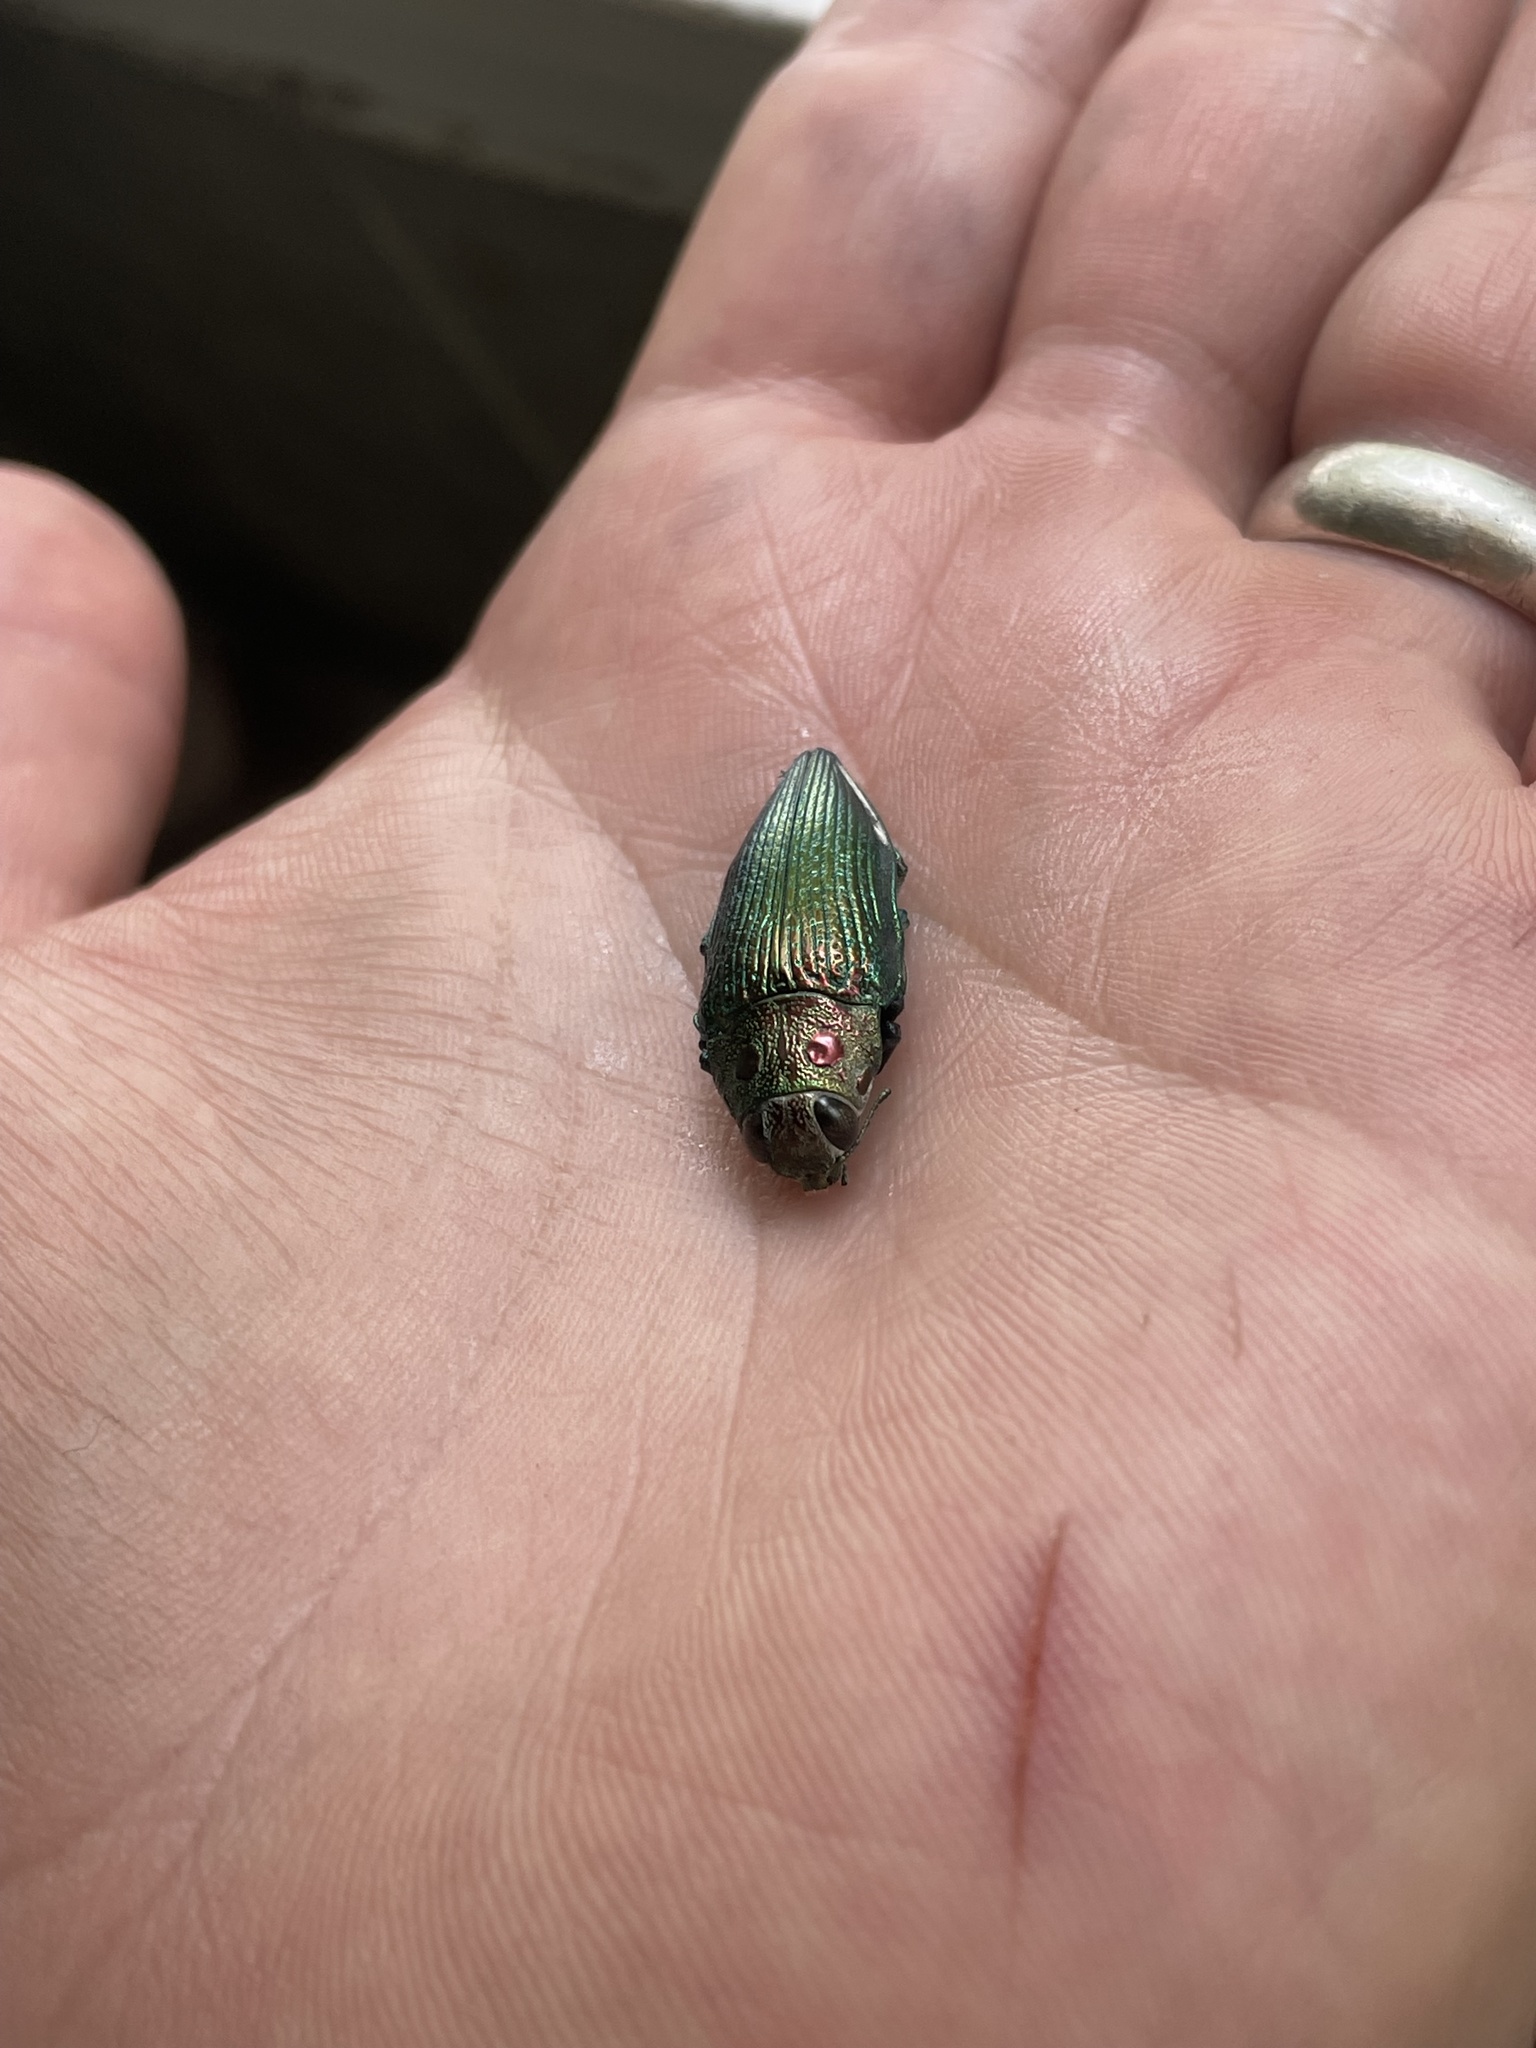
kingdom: Animalia
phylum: Arthropoda
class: Insecta
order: Coleoptera
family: Buprestidae
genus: Lampetis
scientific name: Lampetis amaurotica
